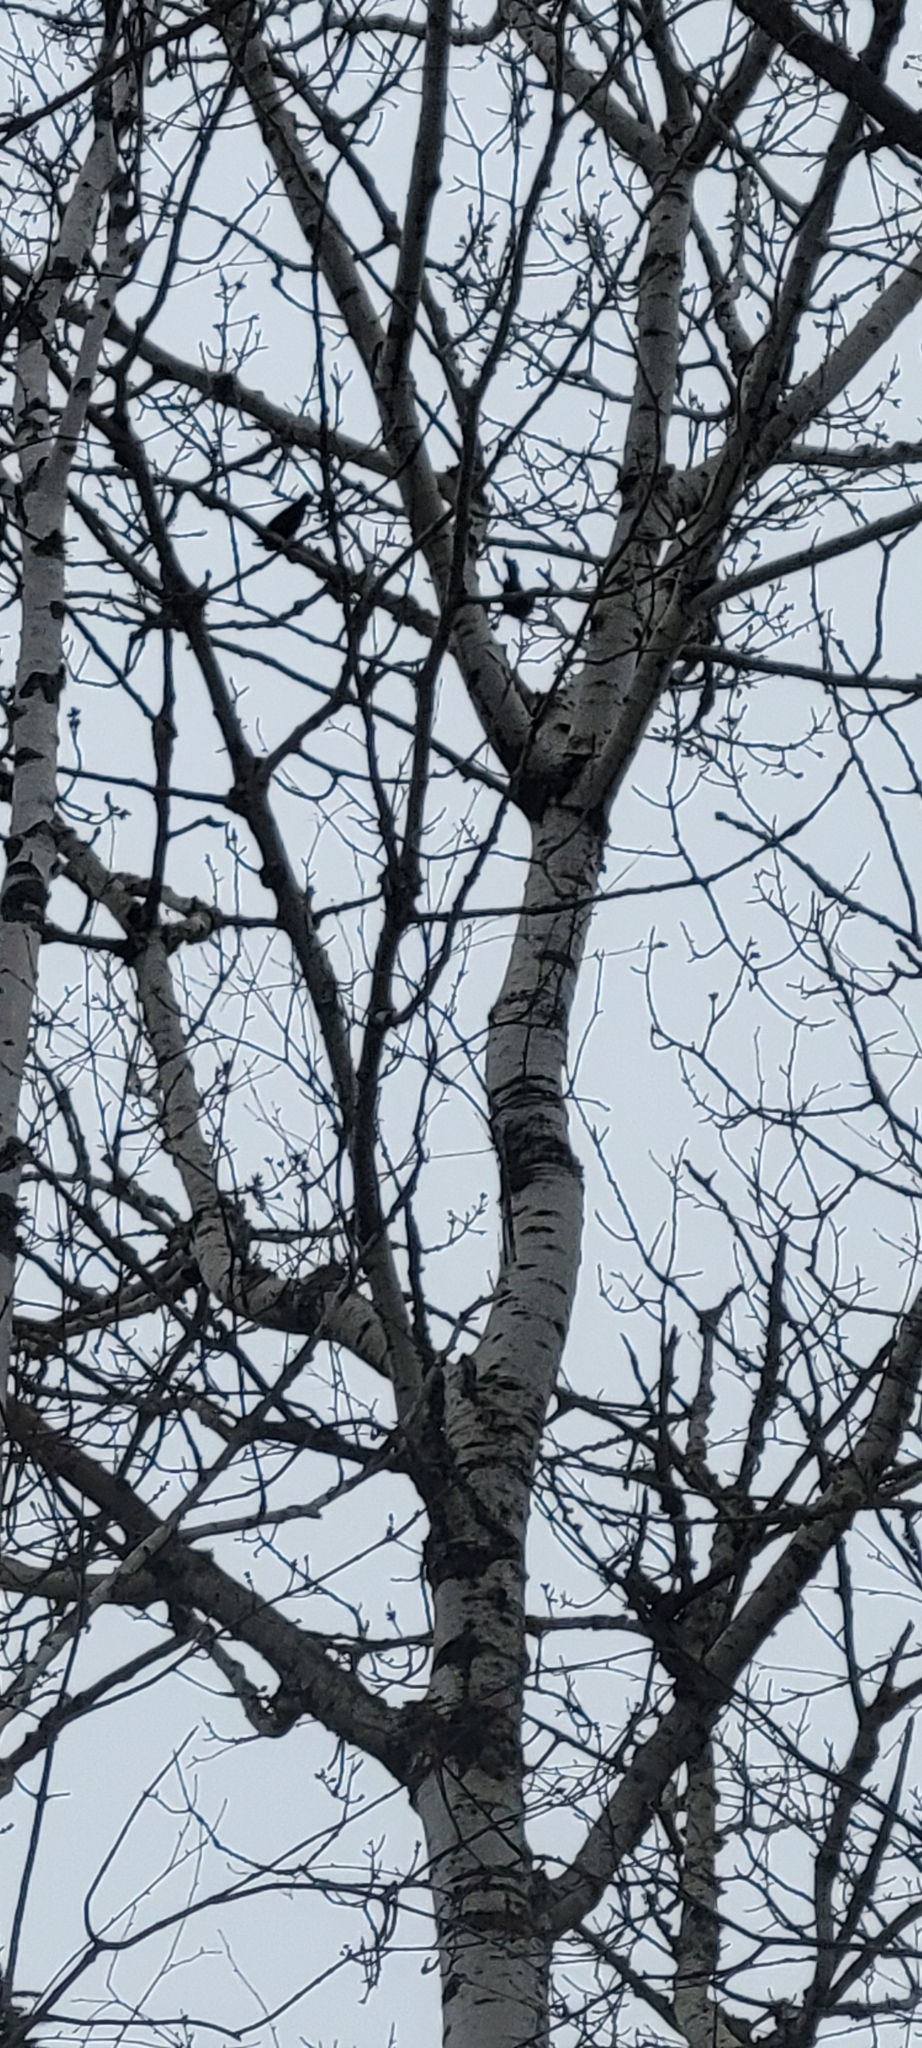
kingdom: Animalia
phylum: Chordata
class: Aves
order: Passeriformes
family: Icteridae
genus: Agelaius
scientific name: Agelaius phoeniceus
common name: Red-winged blackbird
